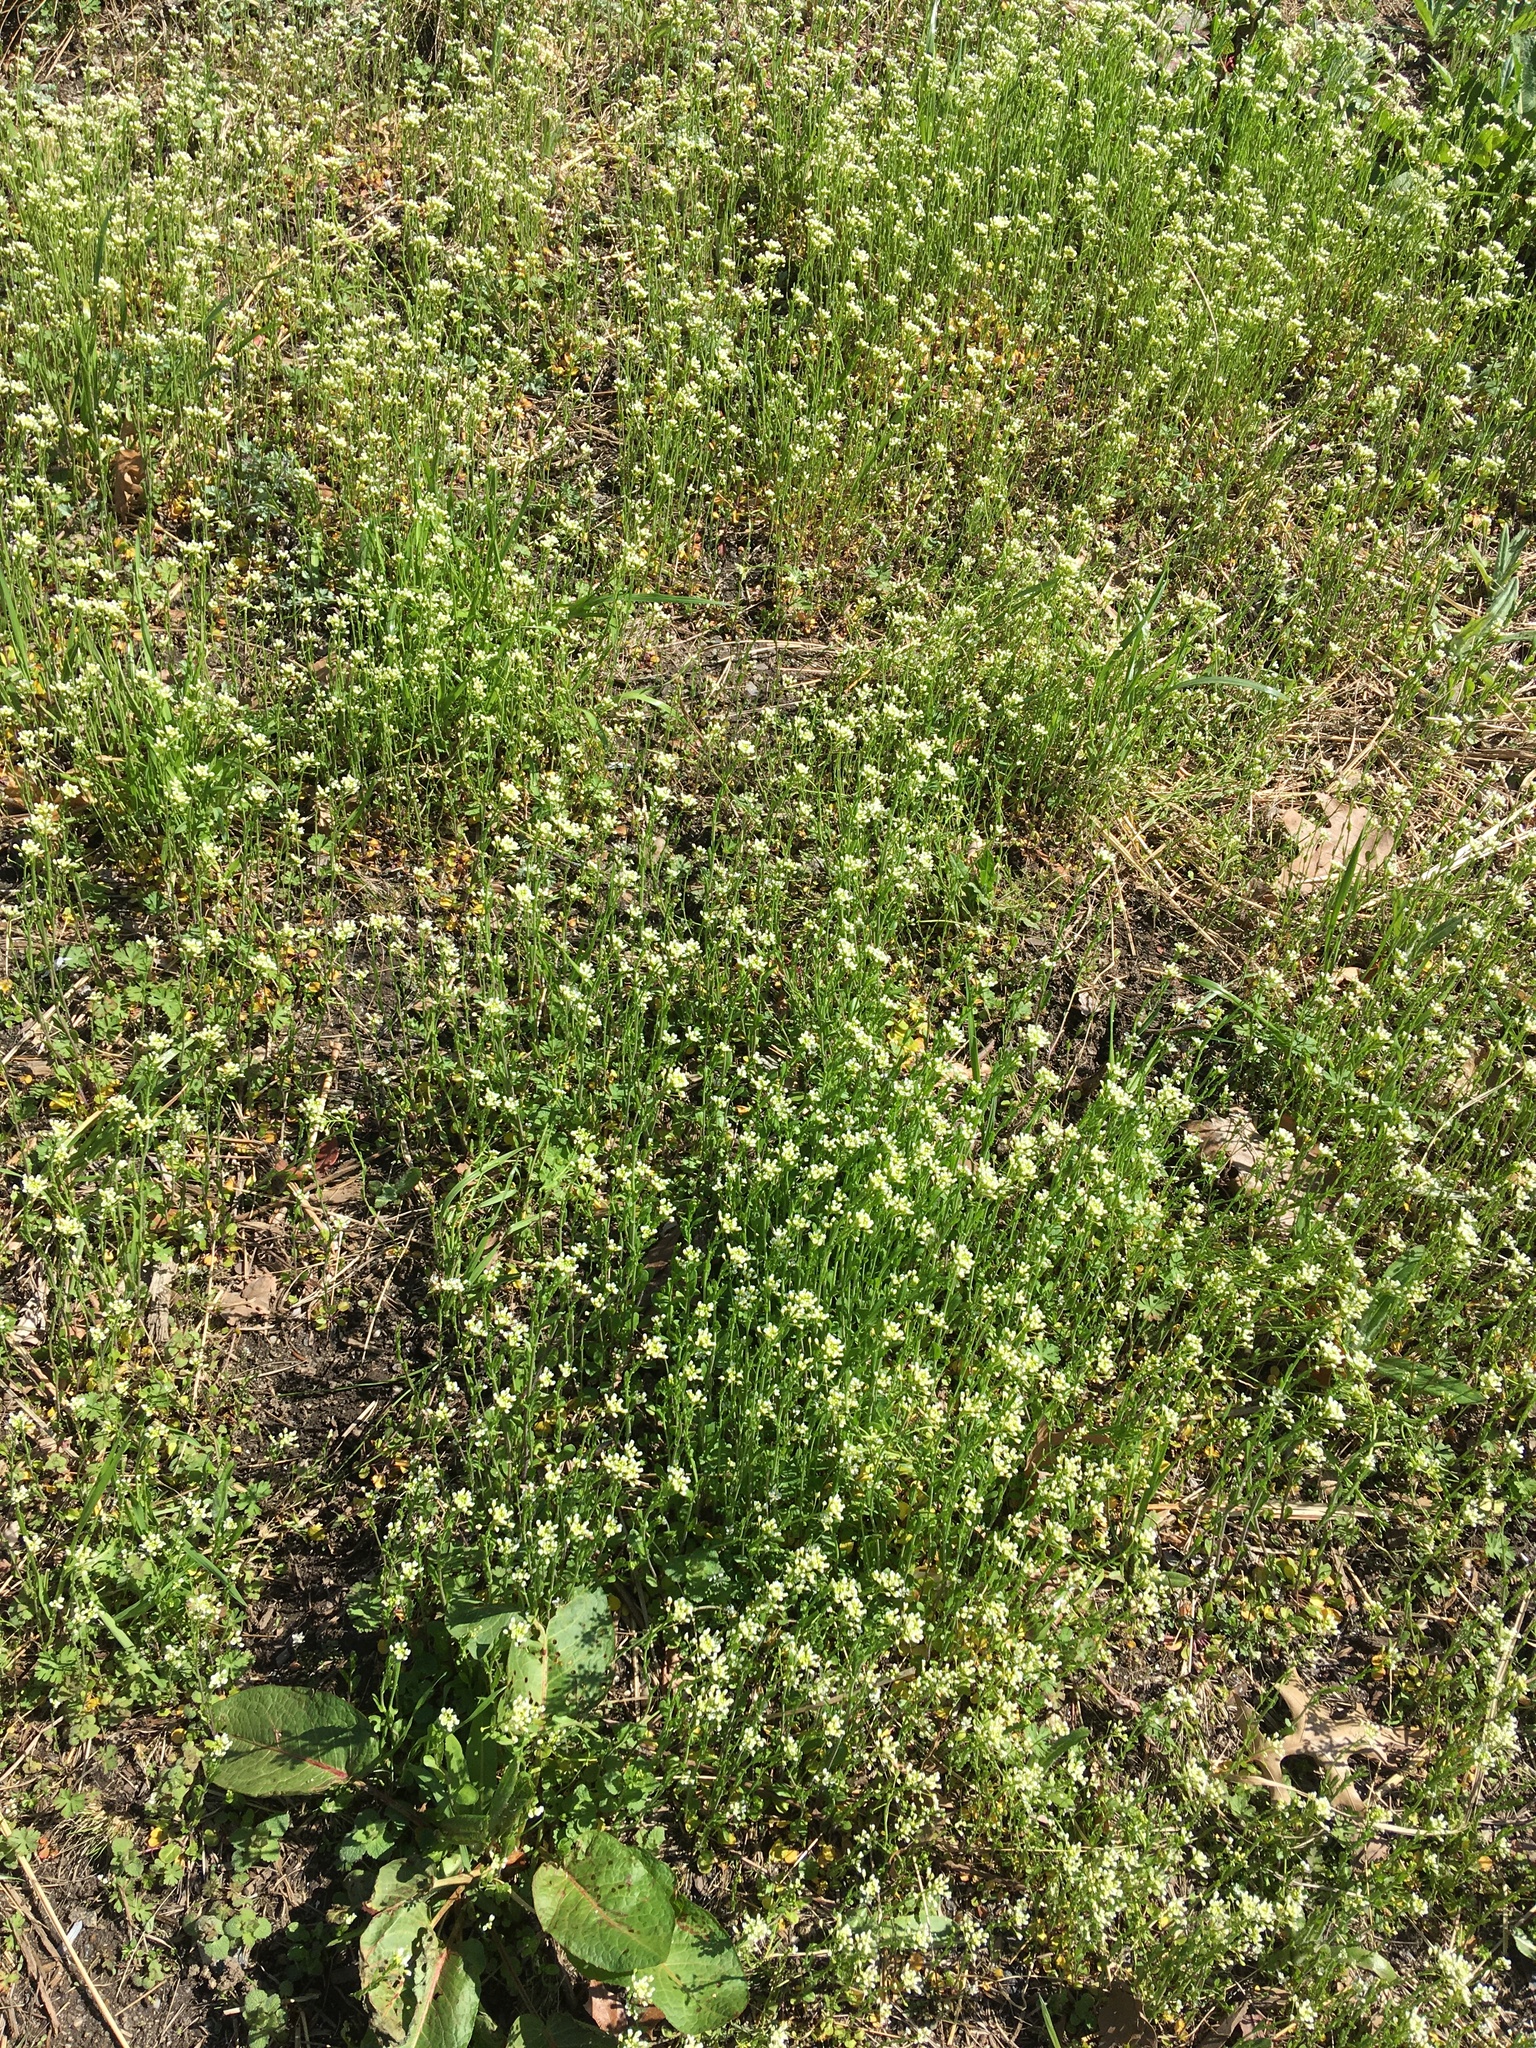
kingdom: Plantae
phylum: Tracheophyta
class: Magnoliopsida
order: Brassicales
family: Brassicaceae
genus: Mummenhoffia
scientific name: Mummenhoffia alliacea
